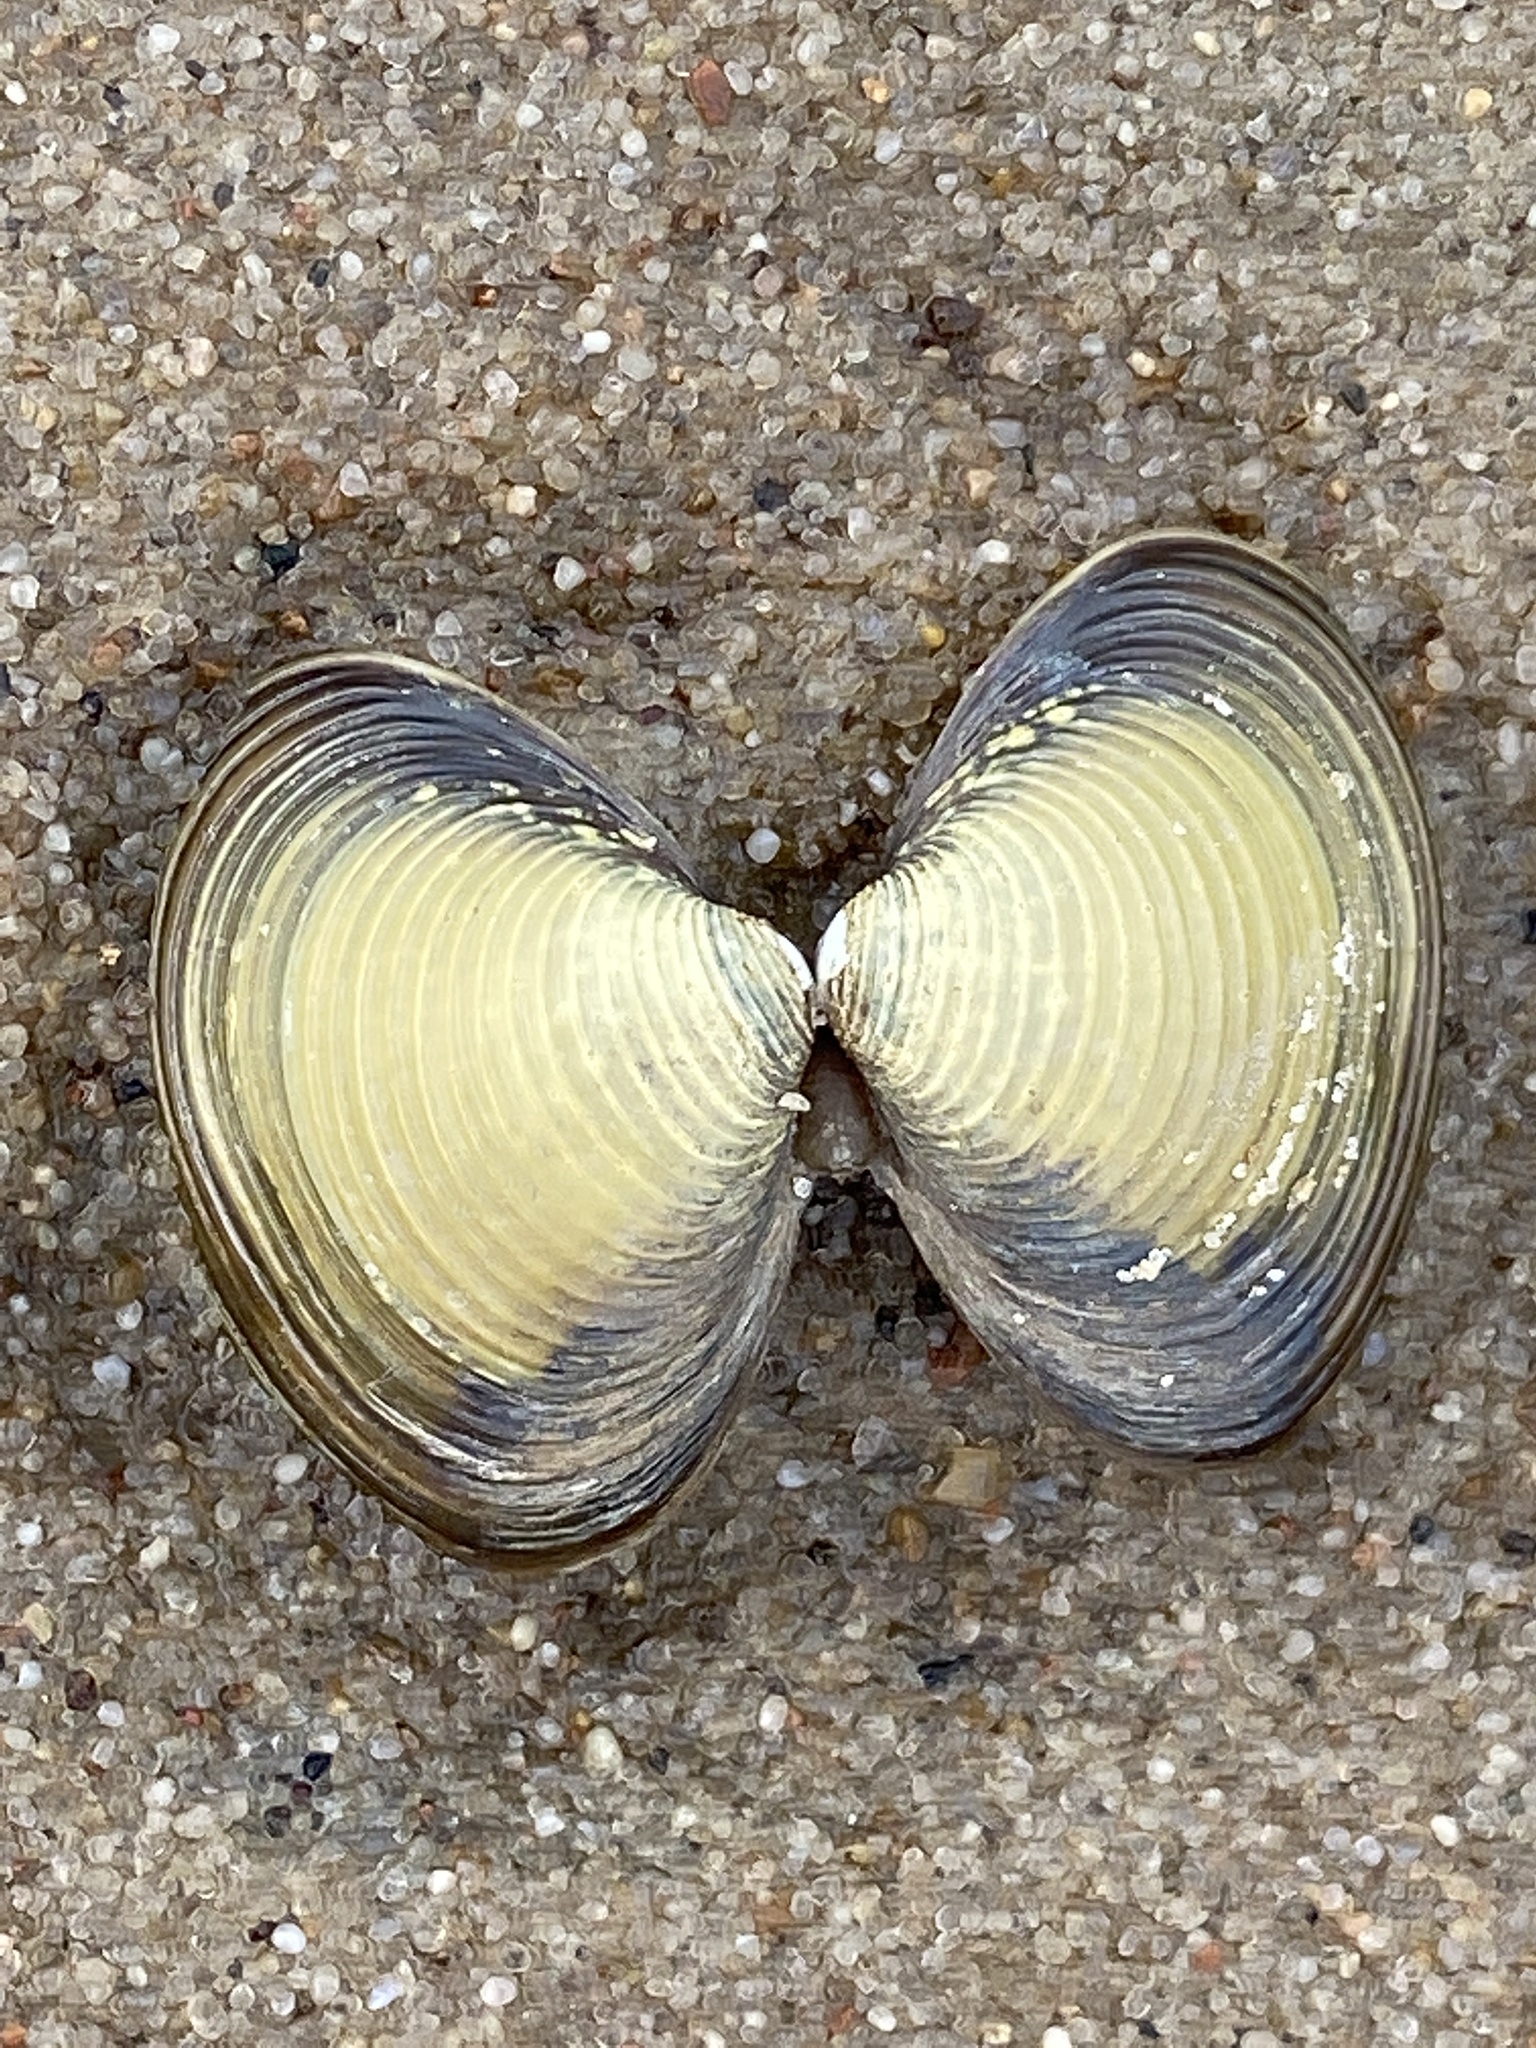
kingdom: Animalia
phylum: Mollusca
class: Bivalvia
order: Venerida
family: Cyrenidae
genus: Corbicula
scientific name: Corbicula fluminea
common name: Asian clam
